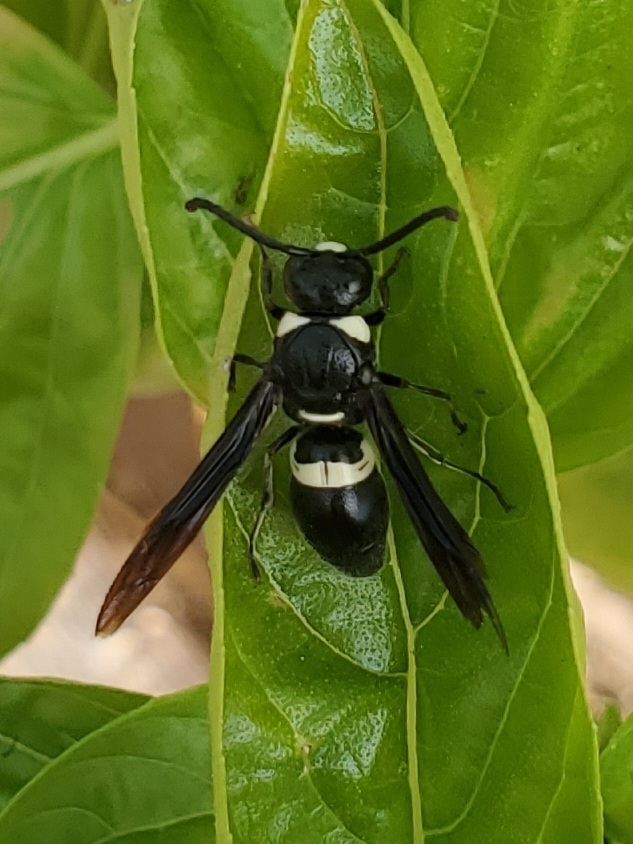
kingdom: Animalia
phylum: Arthropoda
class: Insecta
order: Hymenoptera
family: Eumenidae
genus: Monobia
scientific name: Monobia quadridens
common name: Four-toothed mason wasp
